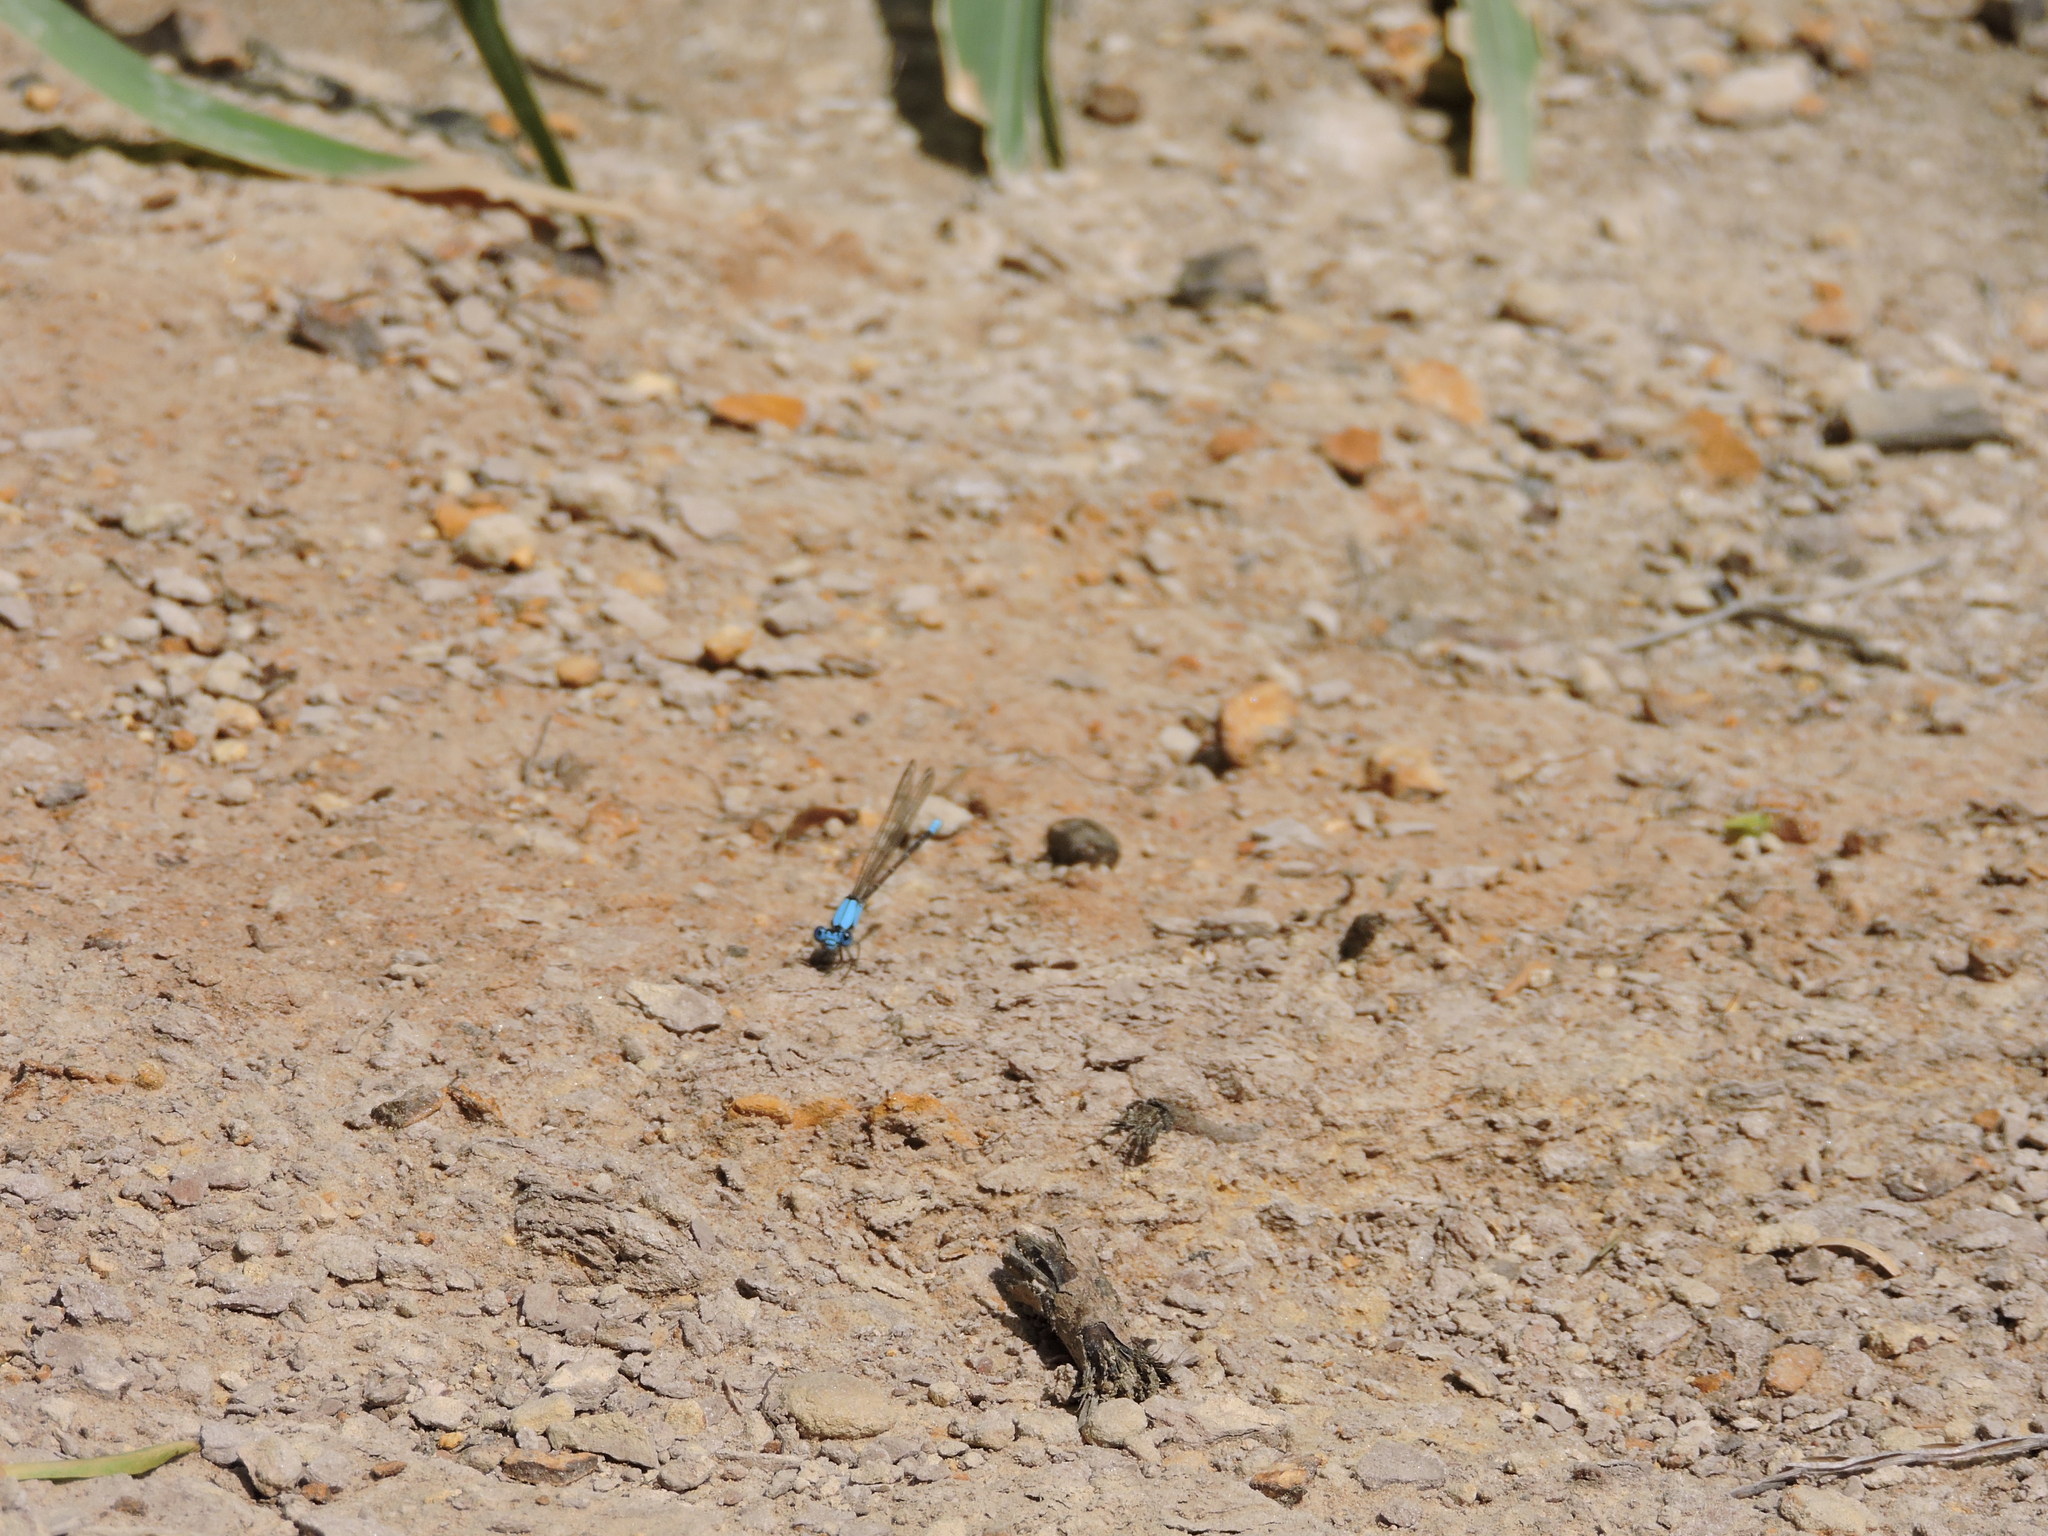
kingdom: Animalia
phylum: Arthropoda
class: Insecta
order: Odonata
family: Coenagrionidae
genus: Argia
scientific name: Argia apicalis
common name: Blue-fronted dancer
